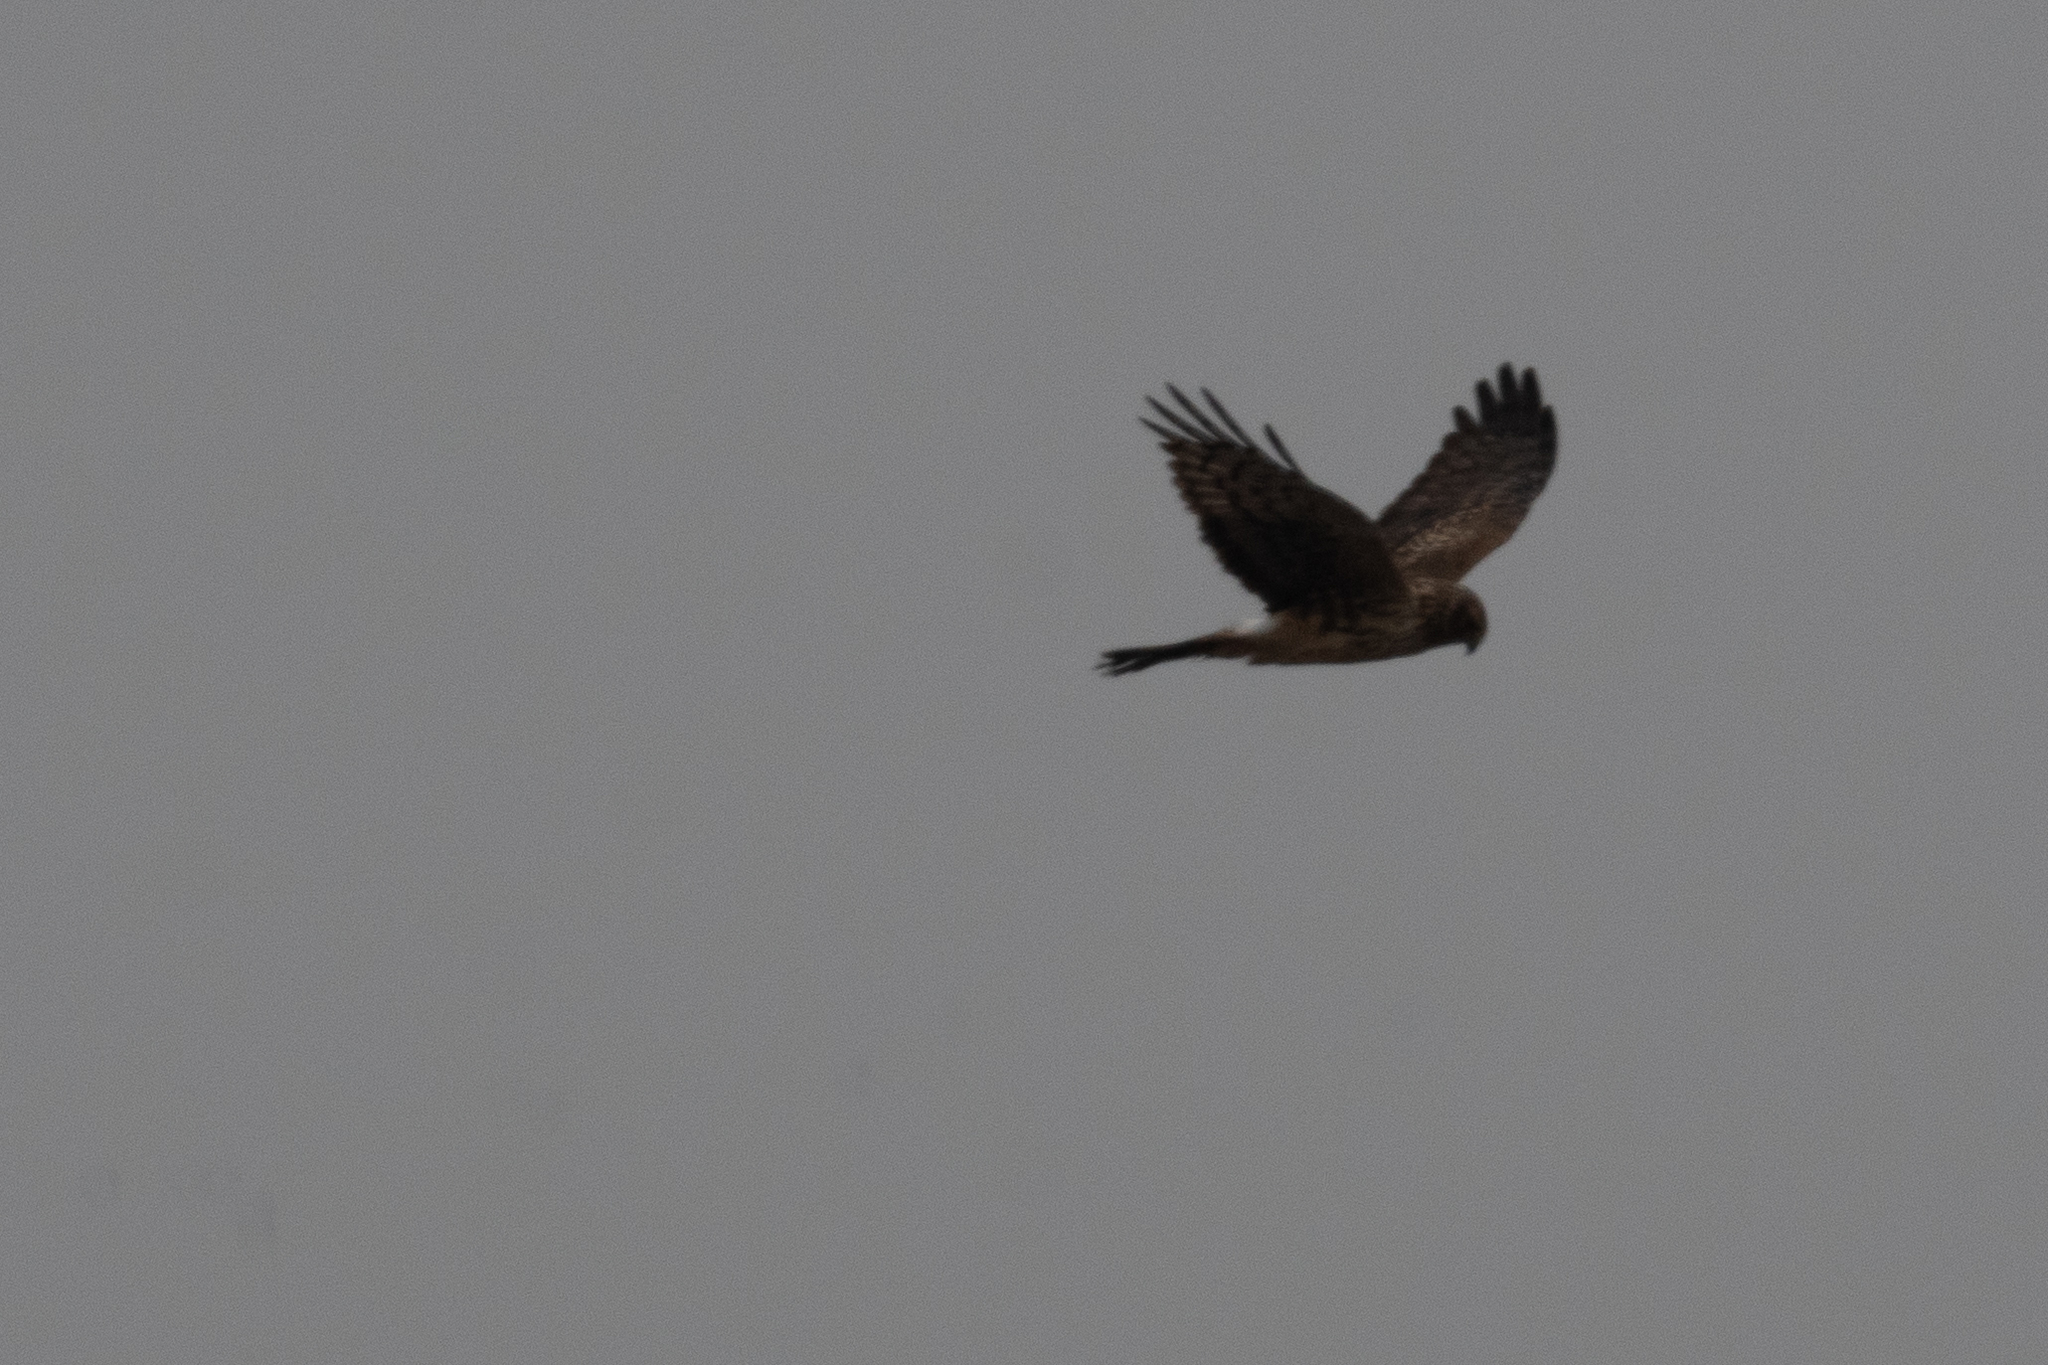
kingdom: Animalia
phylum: Chordata
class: Aves
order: Accipitriformes
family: Accipitridae
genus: Circus
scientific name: Circus cyaneus
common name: Hen harrier
